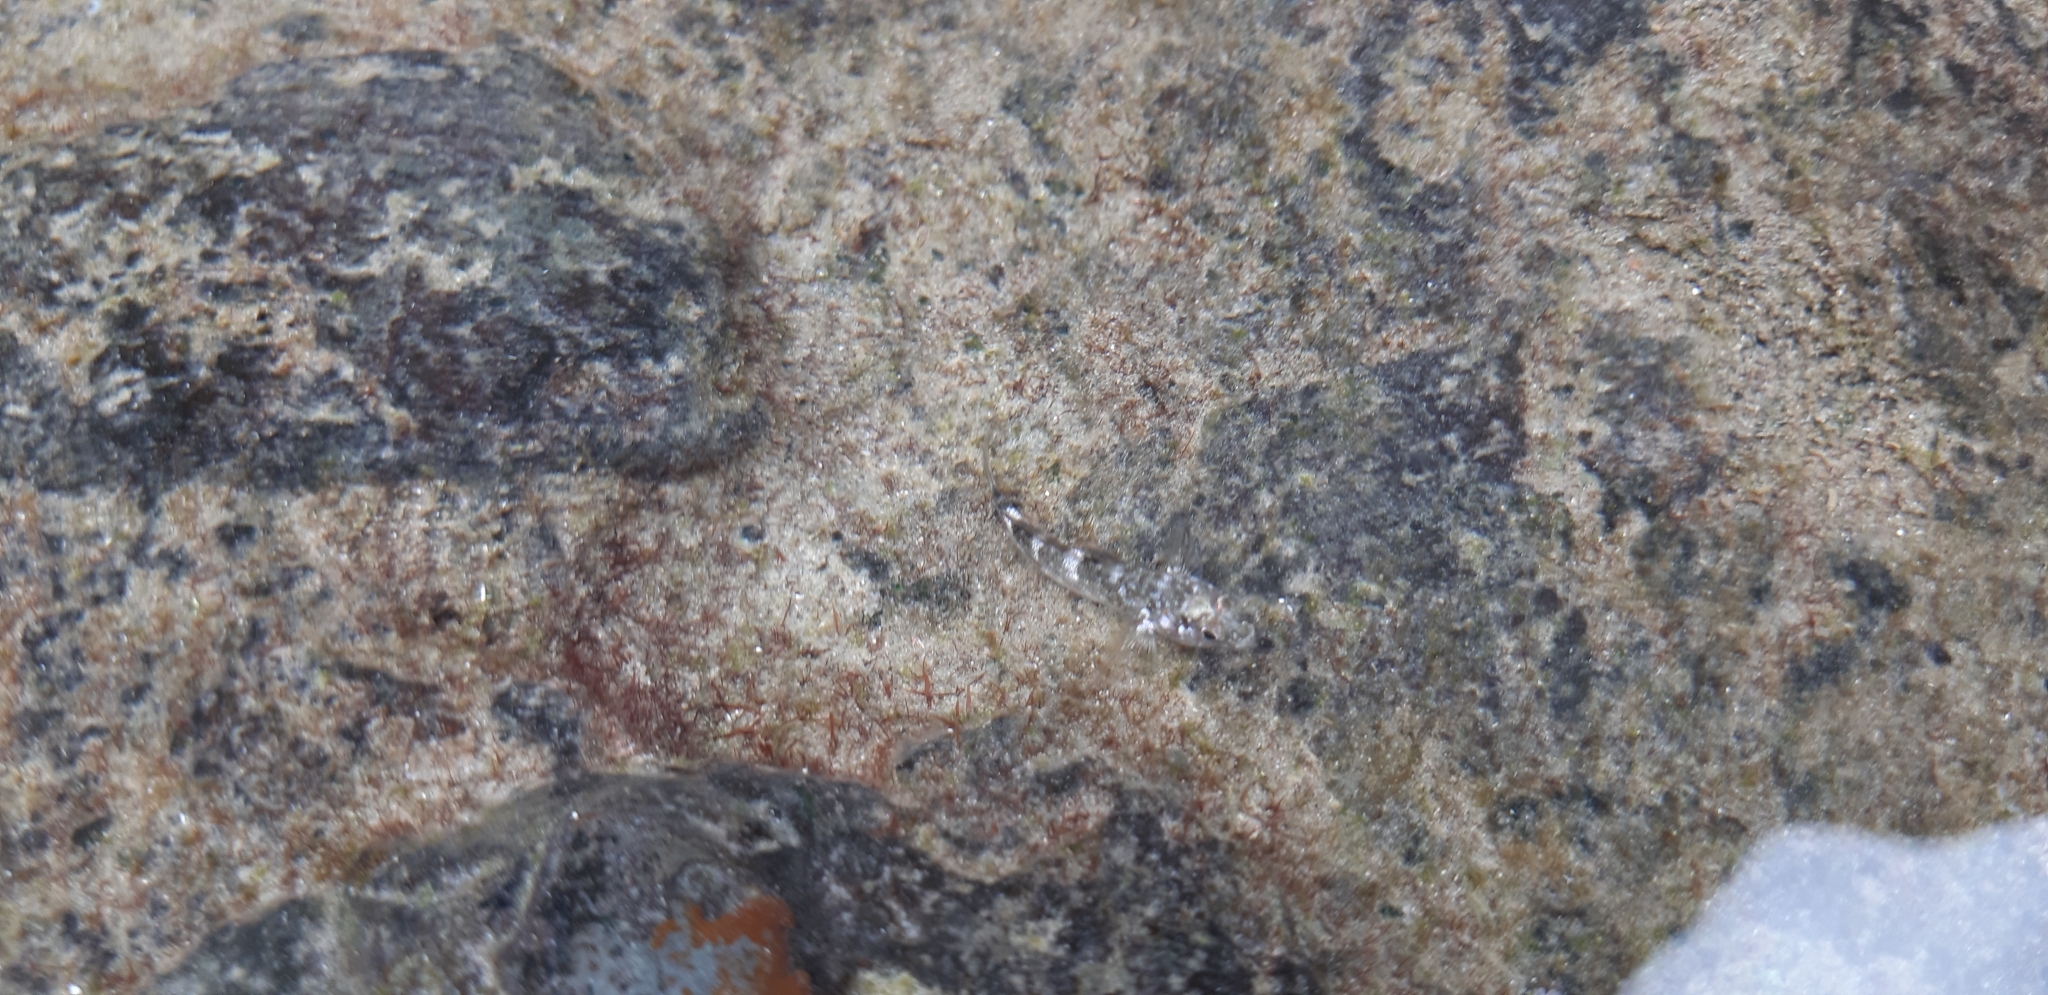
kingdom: Animalia
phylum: Chordata
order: Perciformes
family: Gobiidae
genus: Mauligobius
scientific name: Mauligobius maderensis
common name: Rock goby
